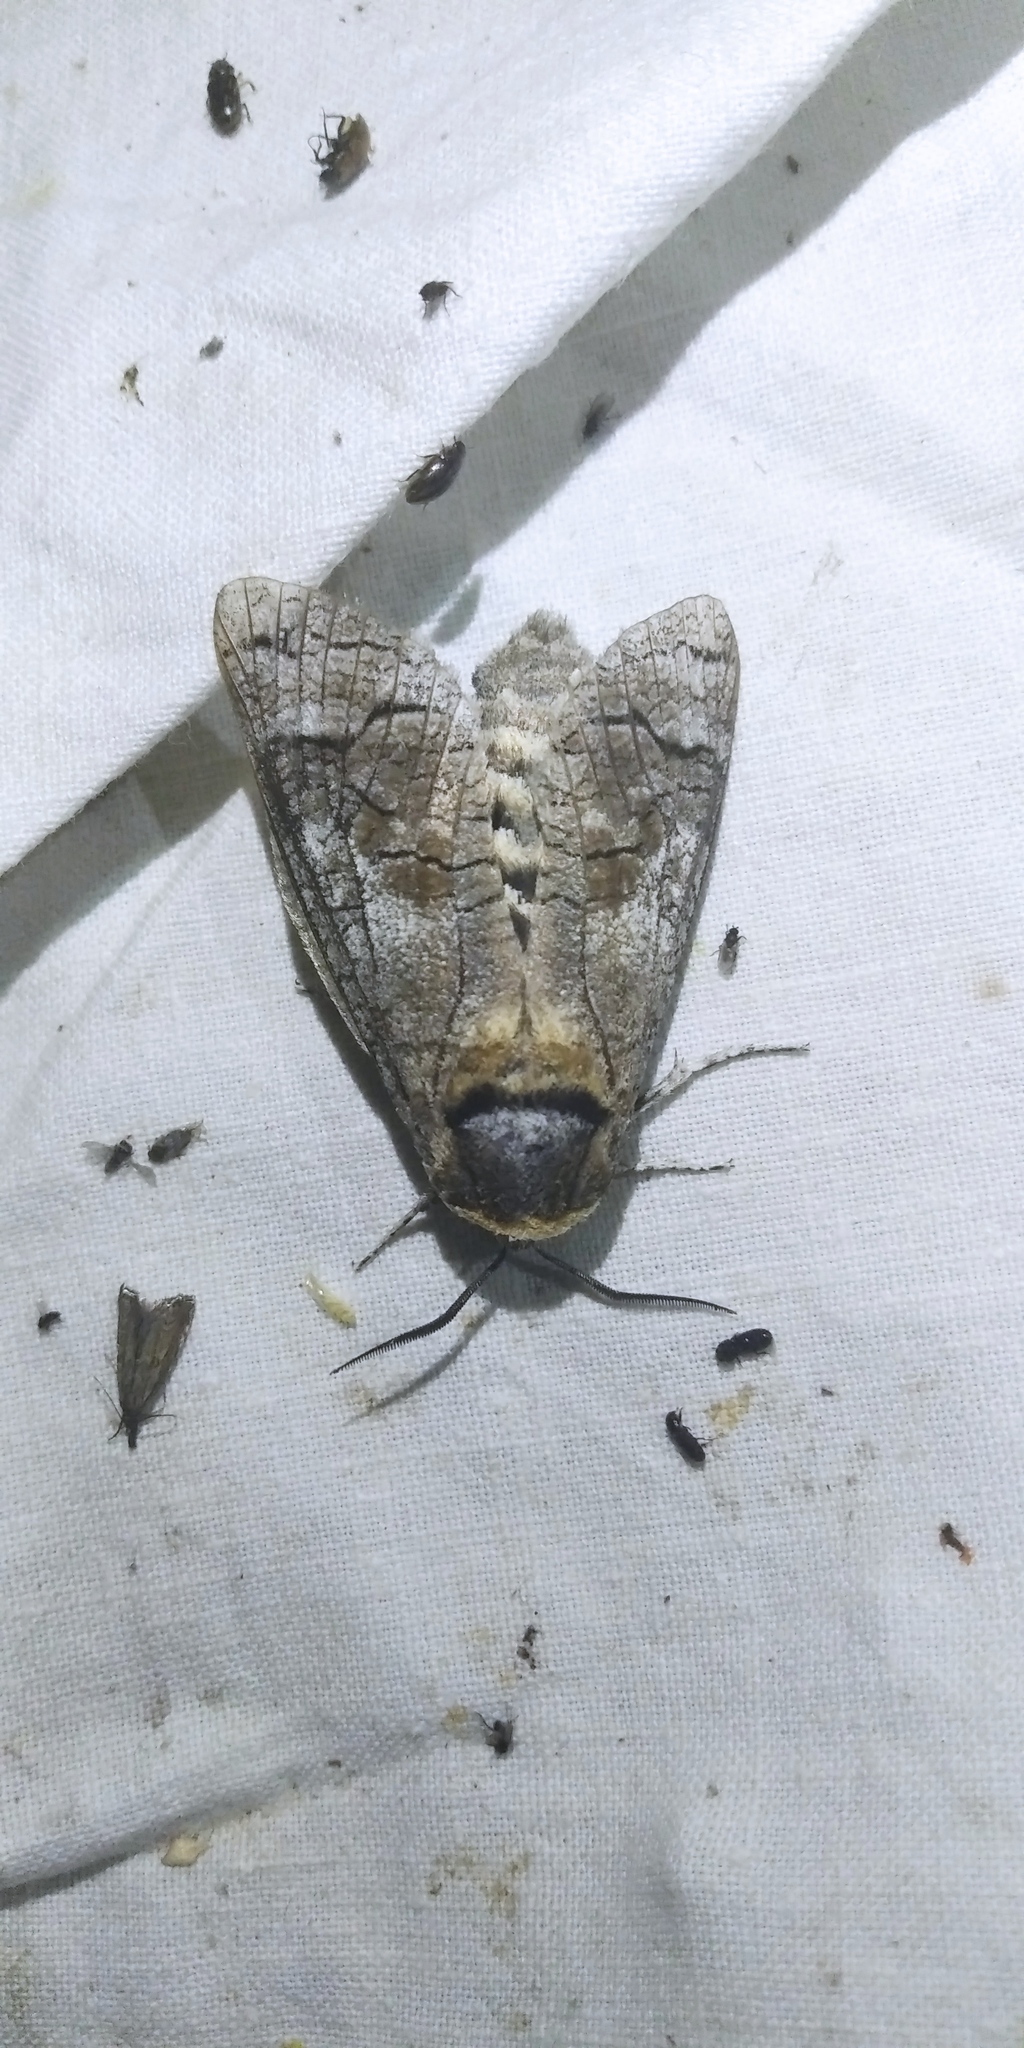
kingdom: Animalia
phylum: Arthropoda
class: Insecta
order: Lepidoptera
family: Cossidae
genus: Cossus
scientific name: Cossus cossus
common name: Goat moth
